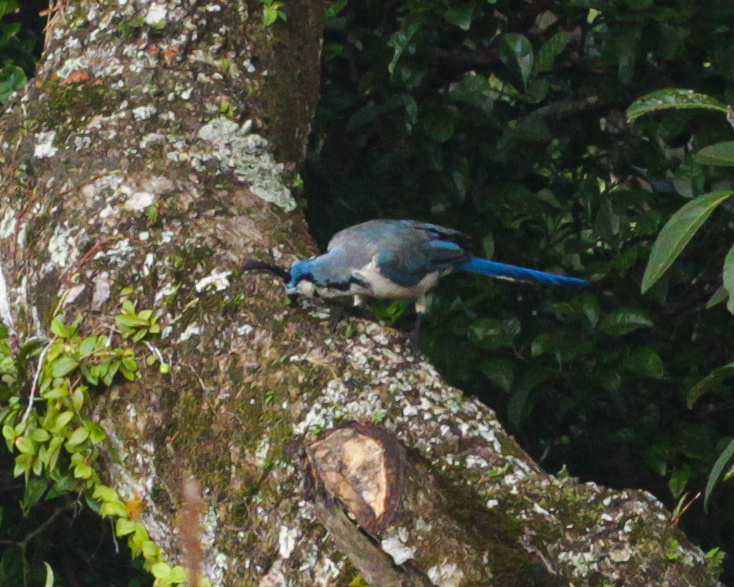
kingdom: Animalia
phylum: Chordata
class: Aves
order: Passeriformes
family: Corvidae
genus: Calocitta
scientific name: Calocitta formosa
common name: White-throated magpie-jay
